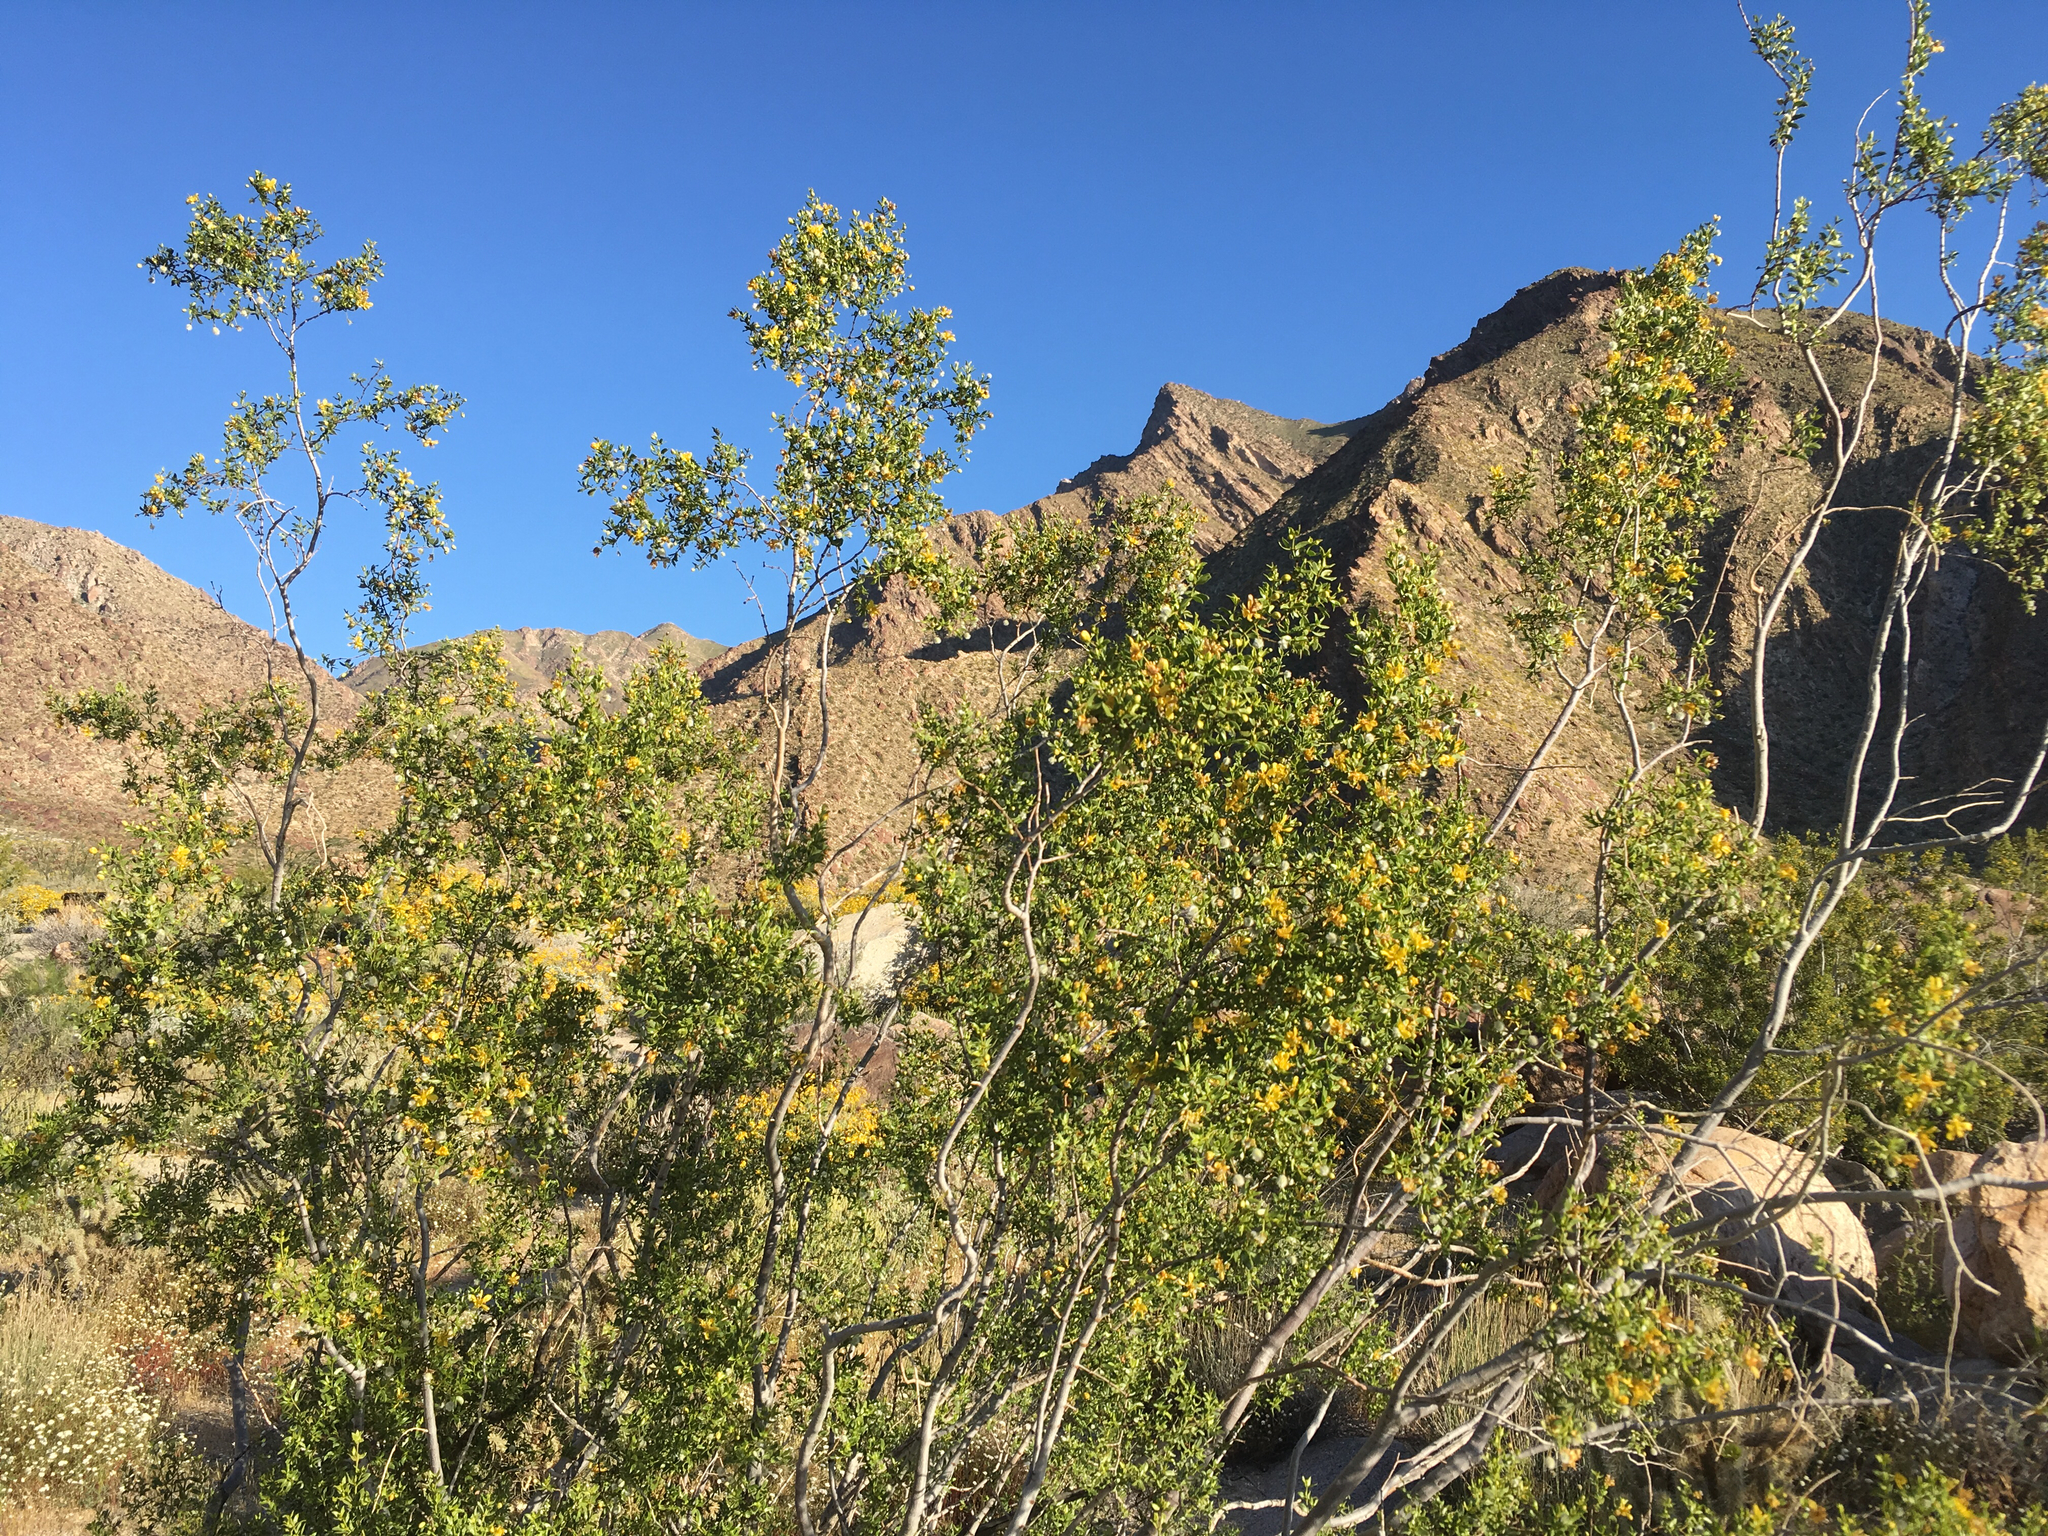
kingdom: Plantae
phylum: Tracheophyta
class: Magnoliopsida
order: Zygophyllales
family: Zygophyllaceae
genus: Larrea
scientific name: Larrea tridentata
